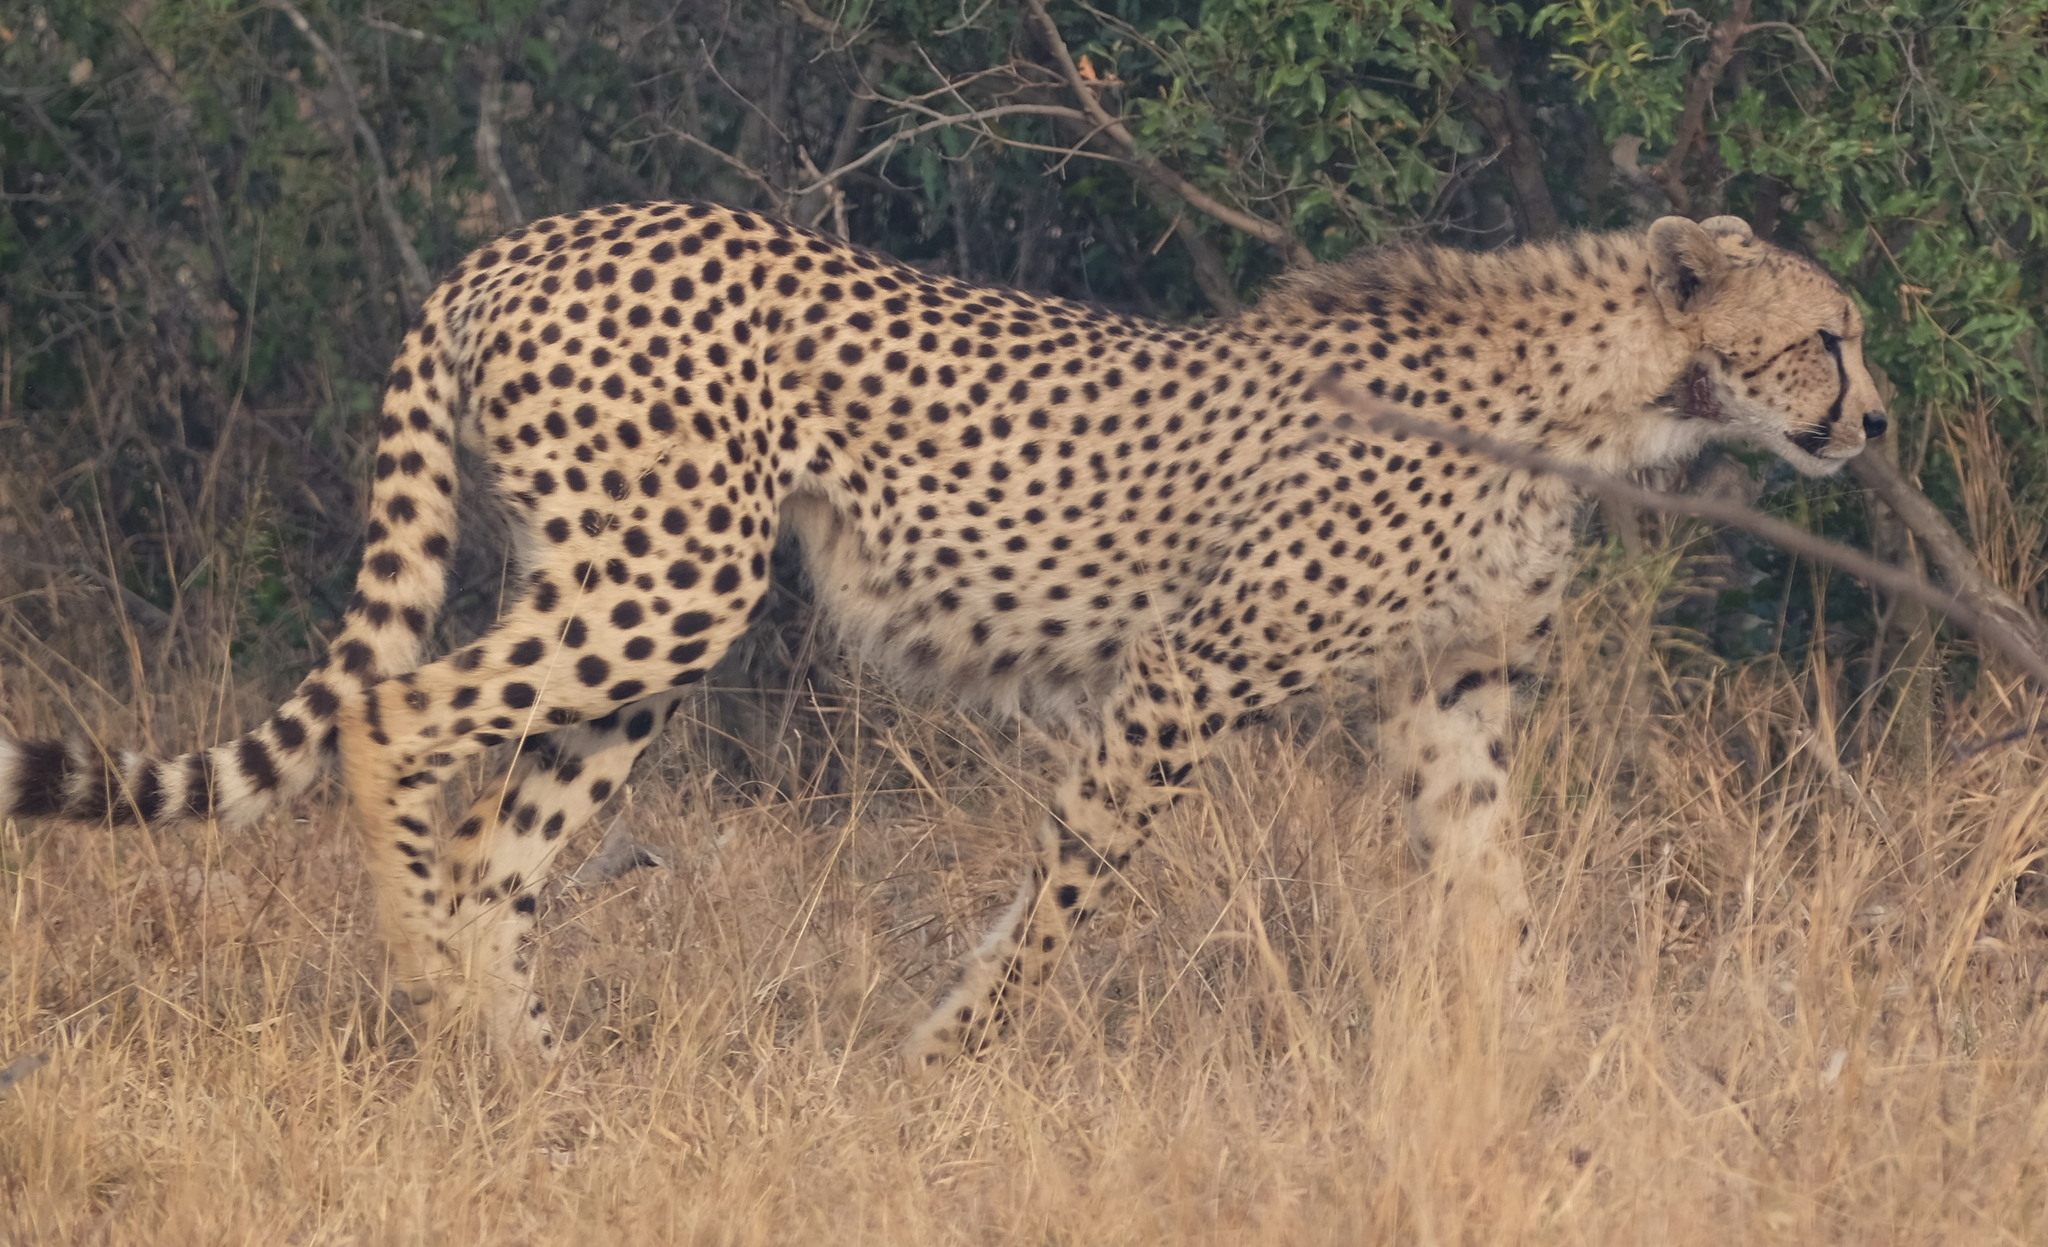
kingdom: Animalia
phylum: Chordata
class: Mammalia
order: Carnivora
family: Felidae
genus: Acinonyx
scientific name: Acinonyx jubatus
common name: Cheetah
